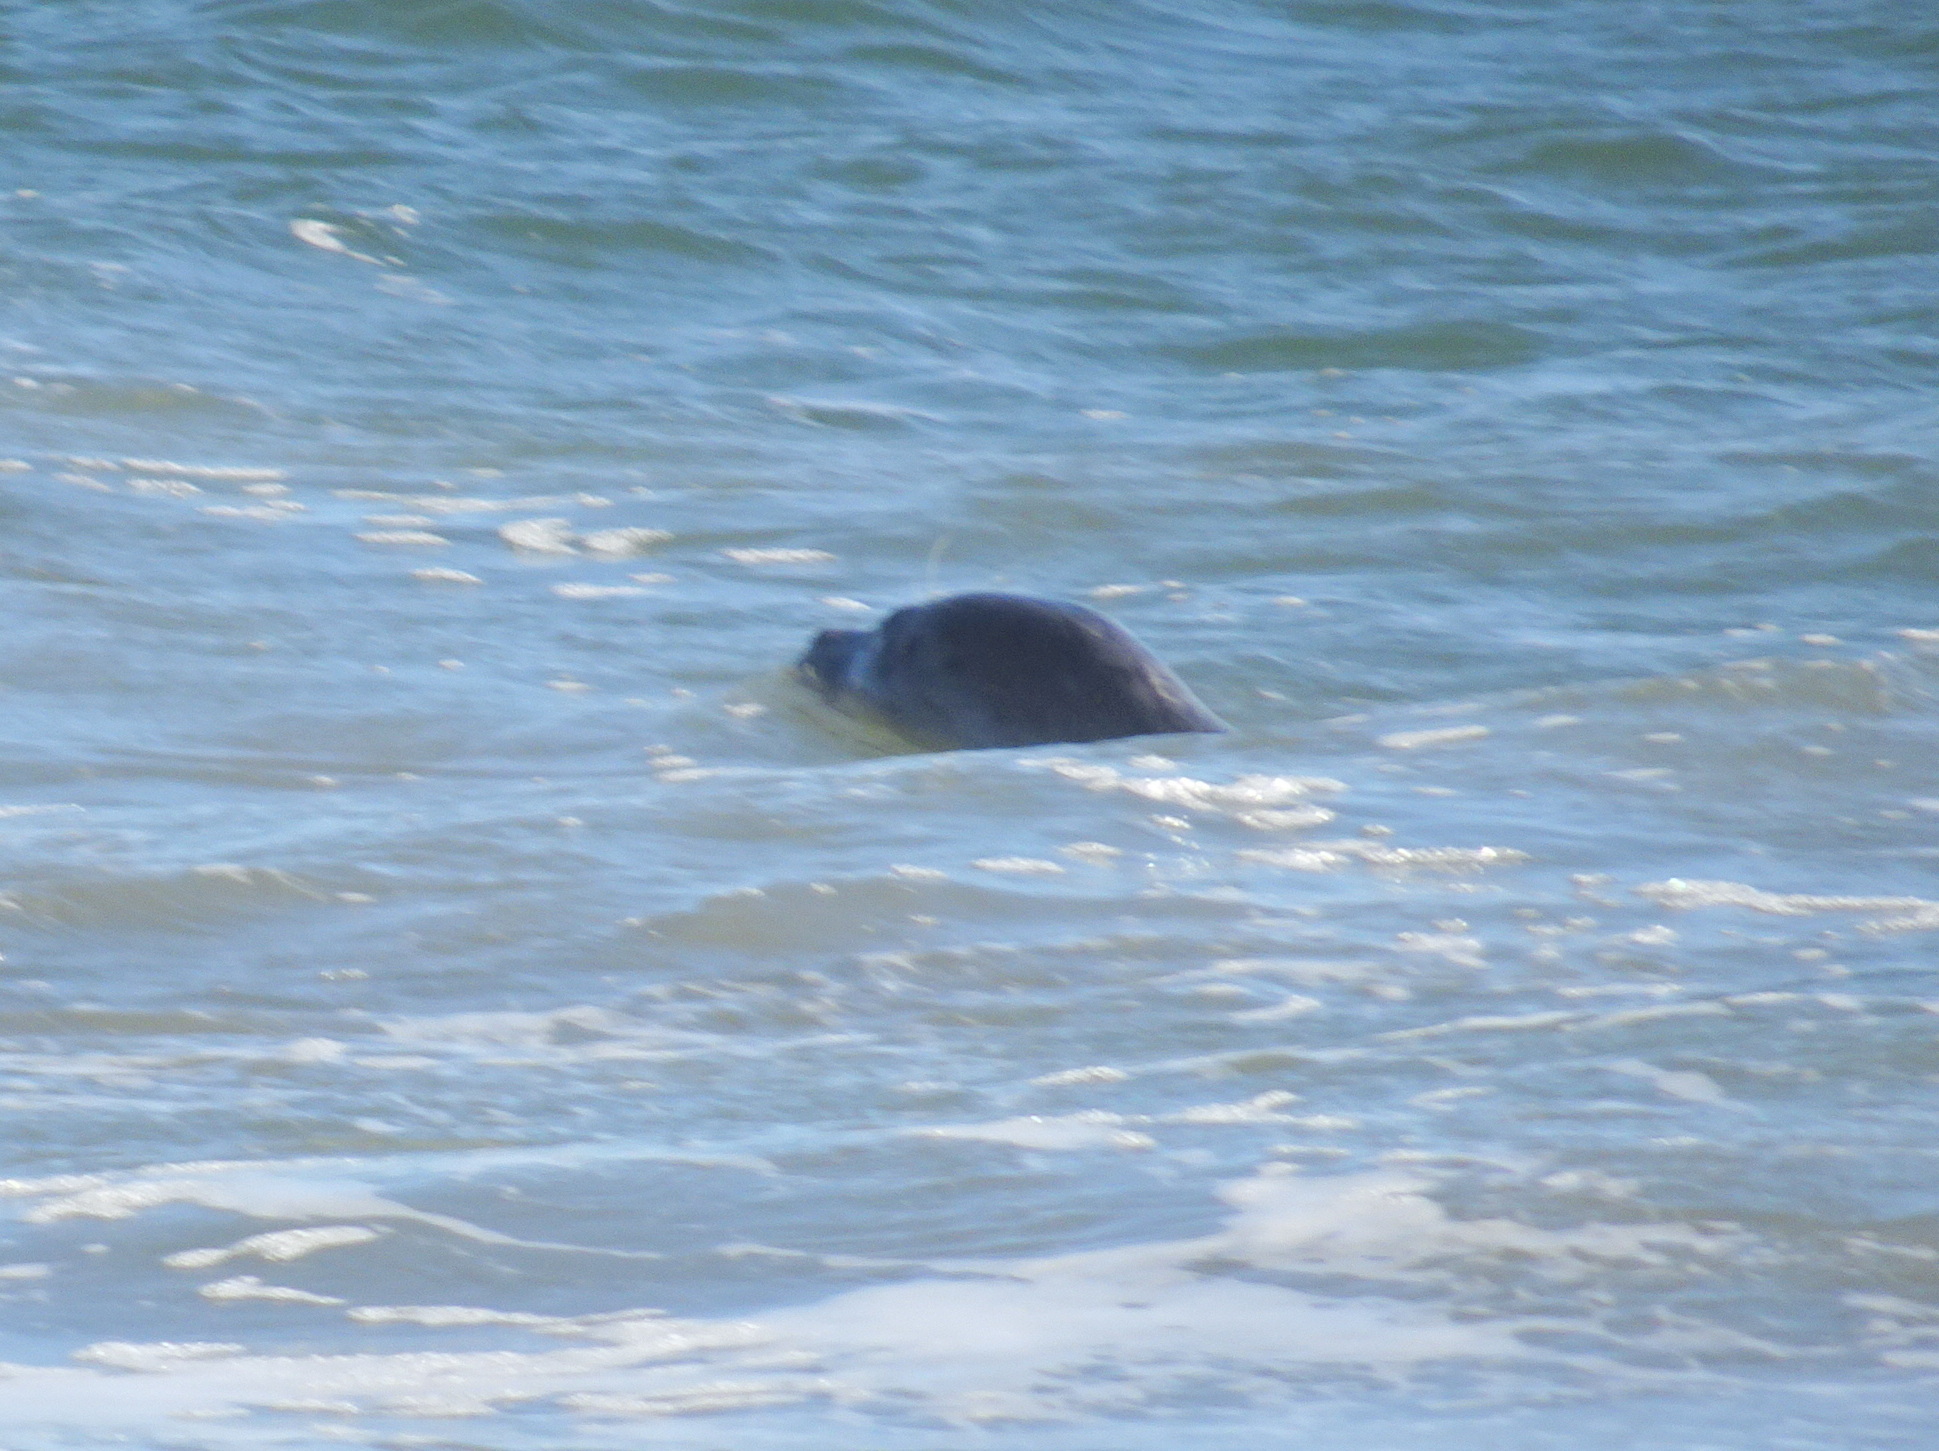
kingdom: Animalia
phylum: Chordata
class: Mammalia
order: Carnivora
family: Phocidae
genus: Phoca
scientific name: Phoca vitulina
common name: Harbor seal
